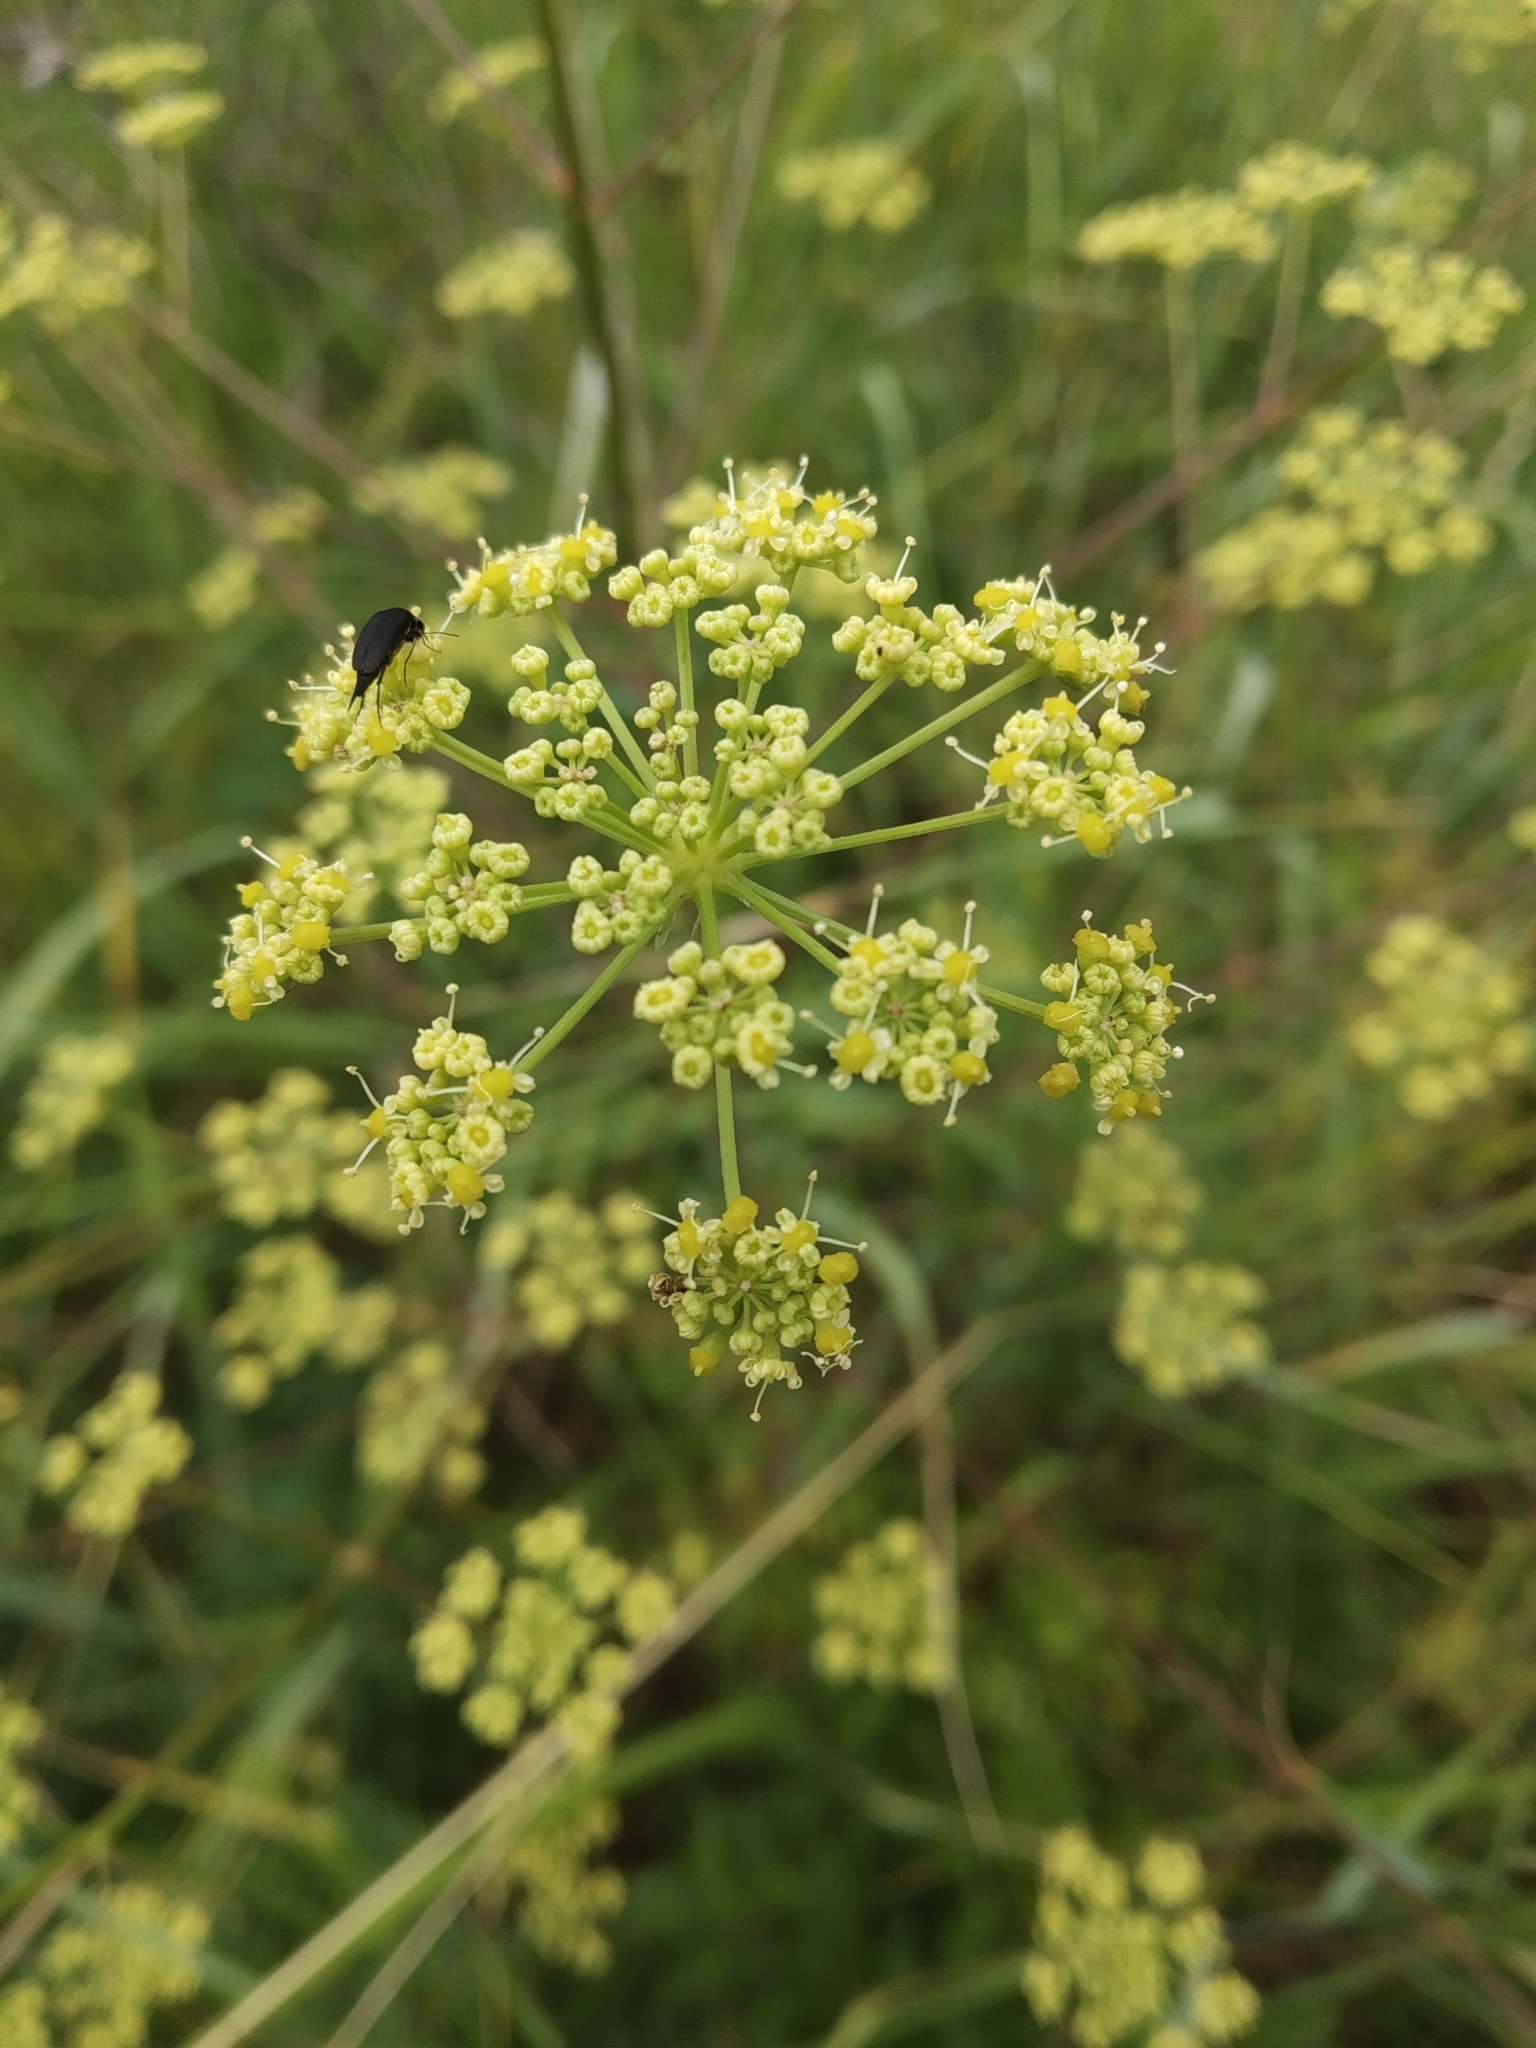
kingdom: Plantae
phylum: Tracheophyta
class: Magnoliopsida
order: Apiales
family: Apiaceae
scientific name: Apiaceae
